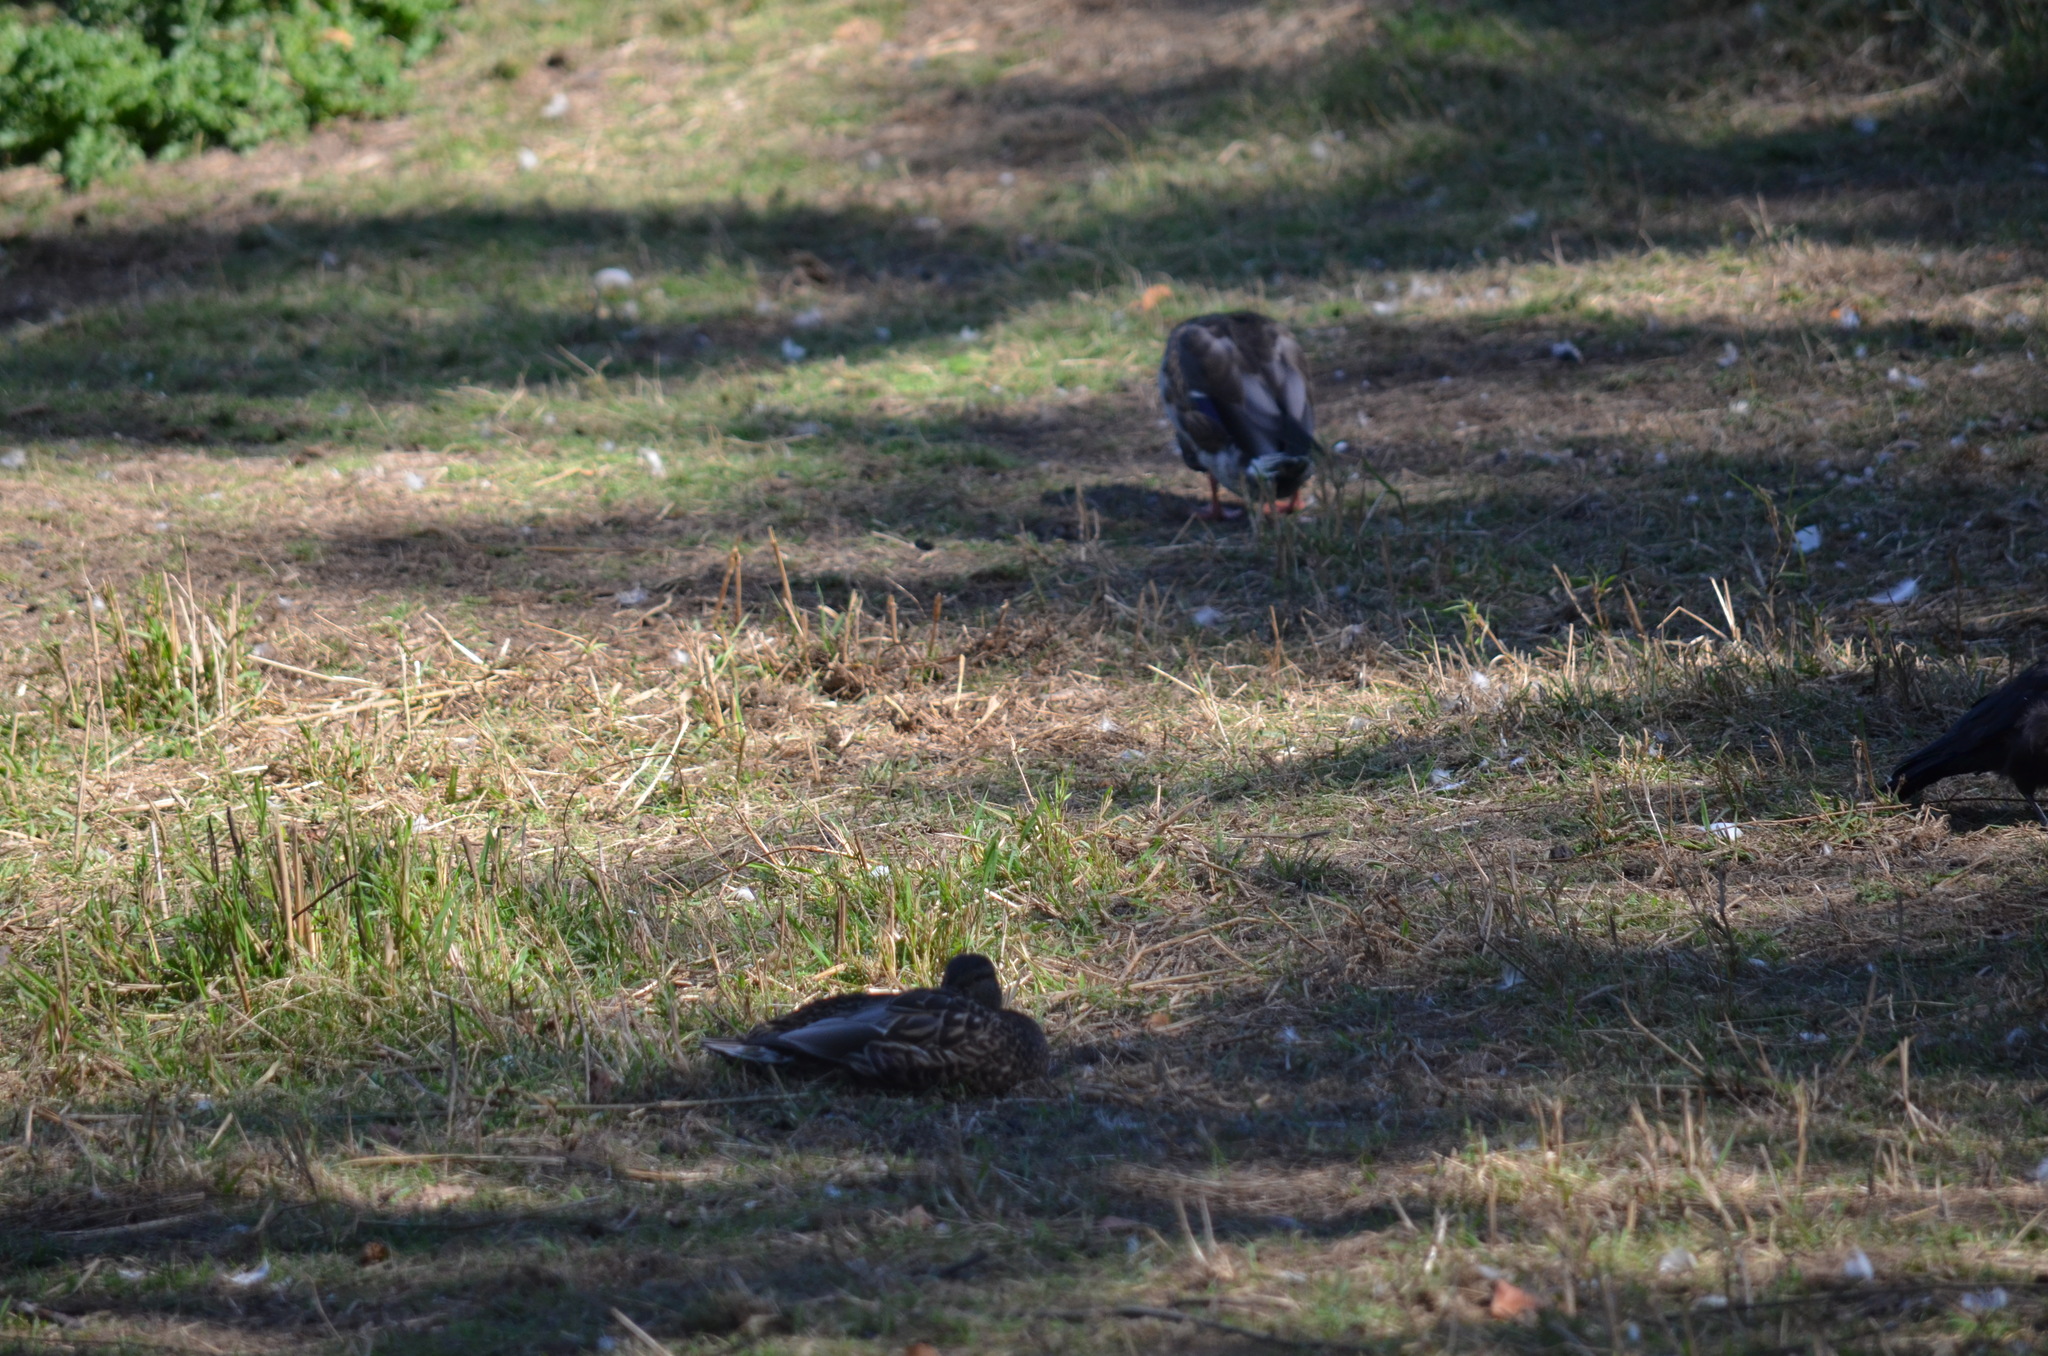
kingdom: Animalia
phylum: Chordata
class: Aves
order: Anseriformes
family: Anatidae
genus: Anas
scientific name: Anas platyrhynchos
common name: Mallard
